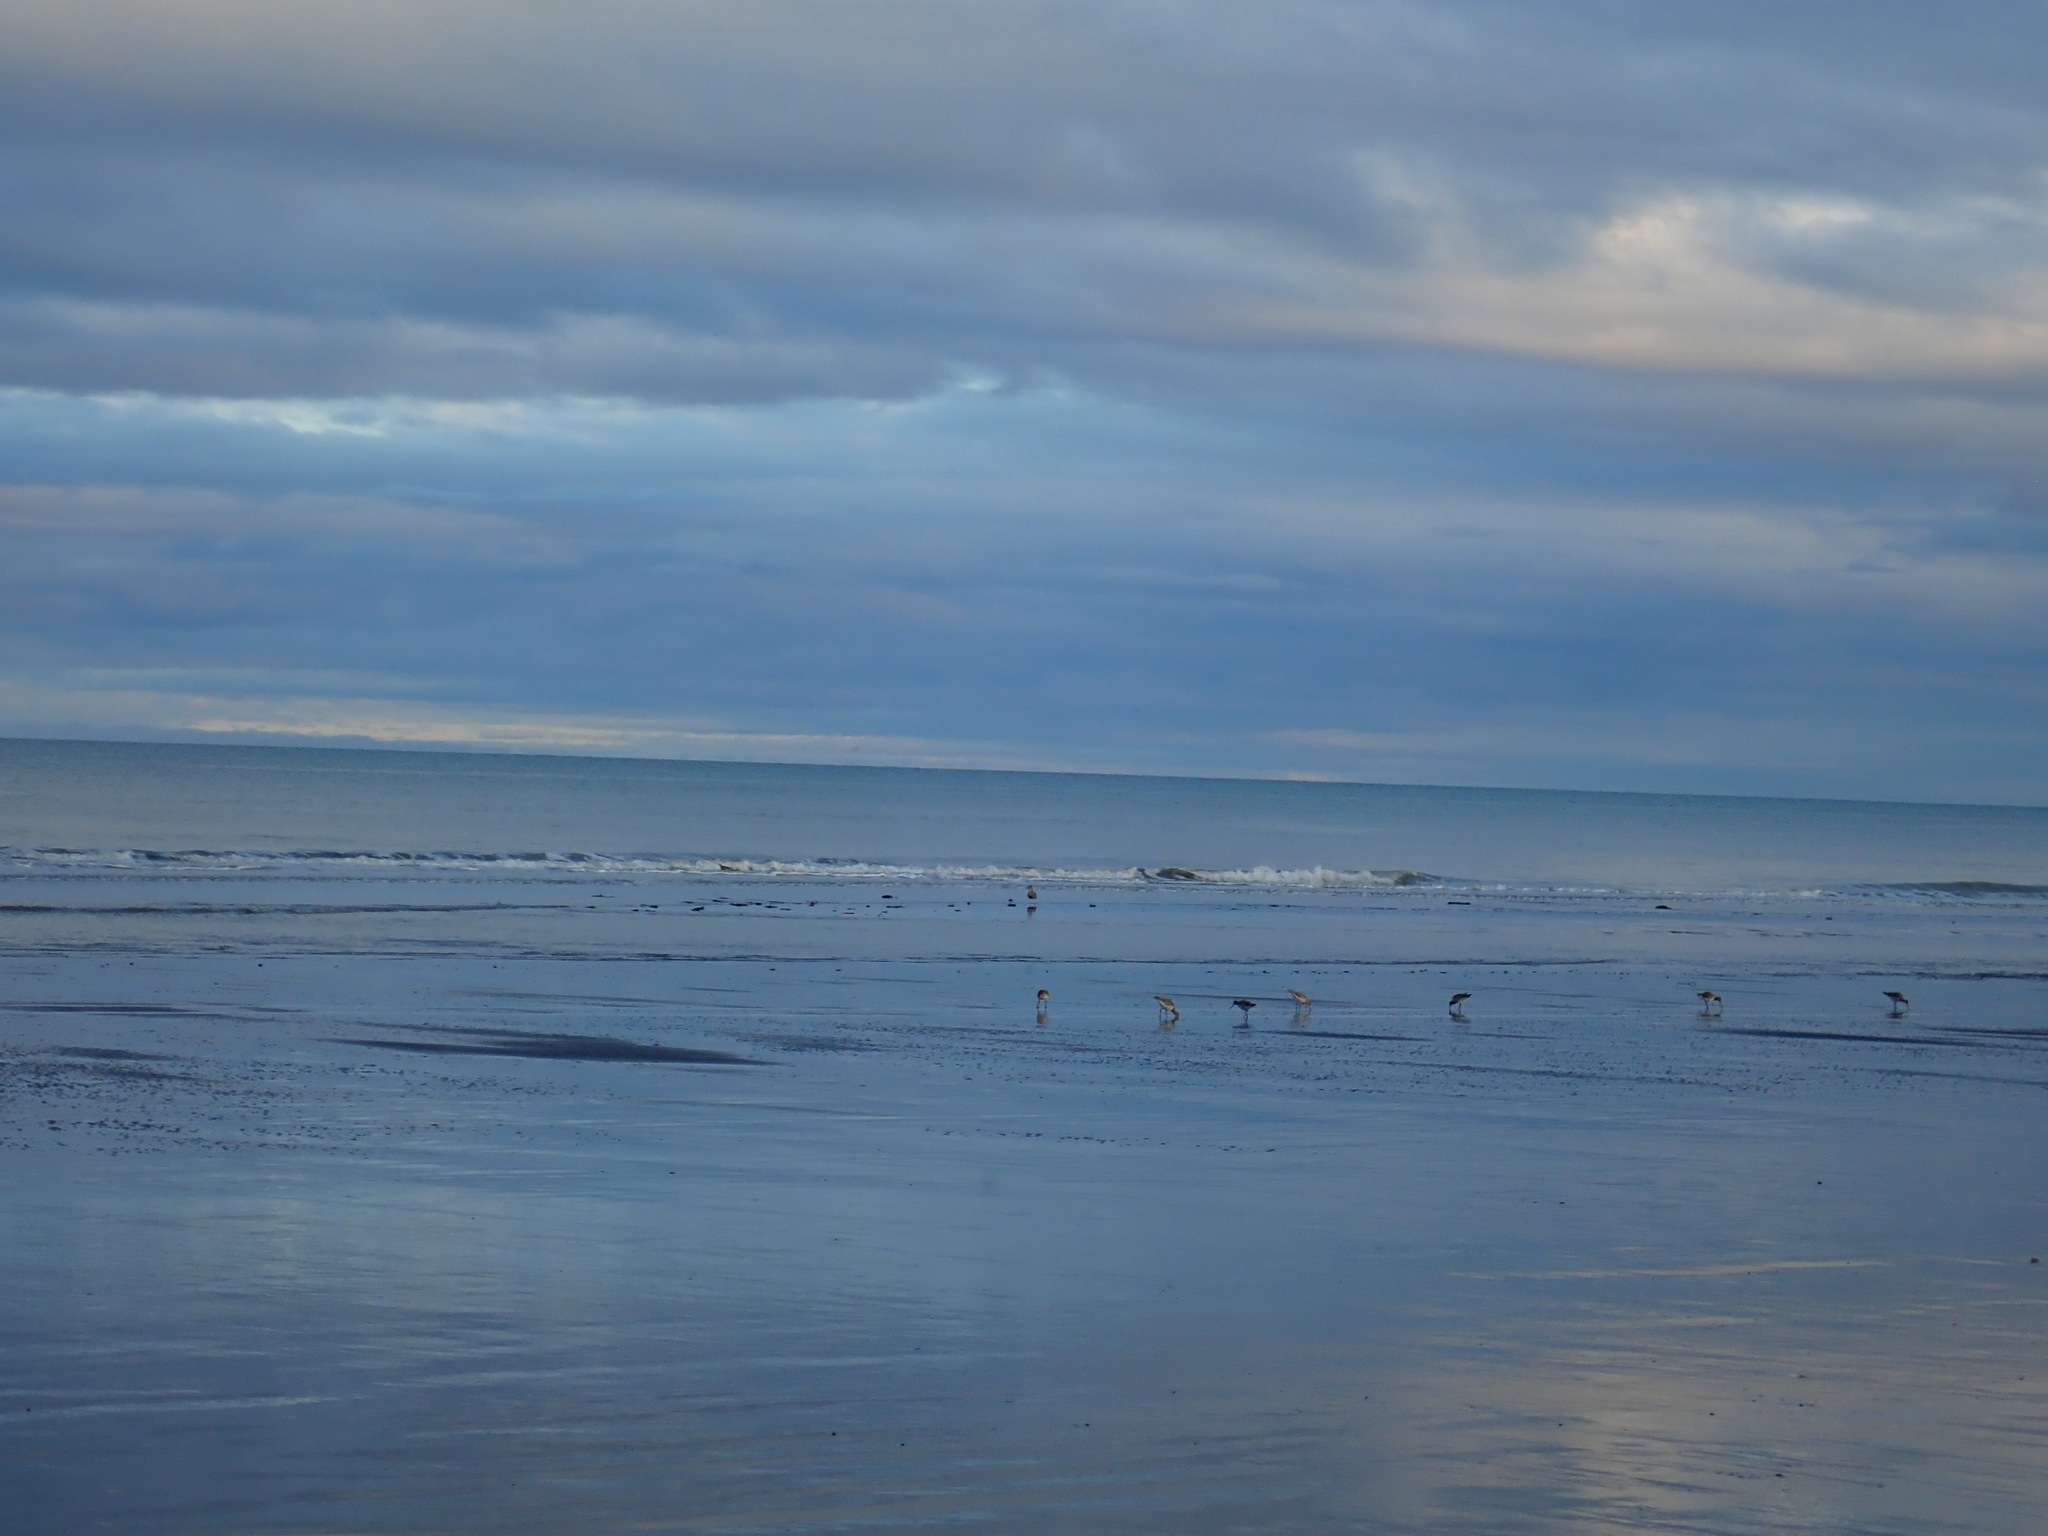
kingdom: Animalia
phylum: Chordata
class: Aves
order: Charadriiformes
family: Scolopacidae
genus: Limosa
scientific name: Limosa lapponica
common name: Bar-tailed godwit
